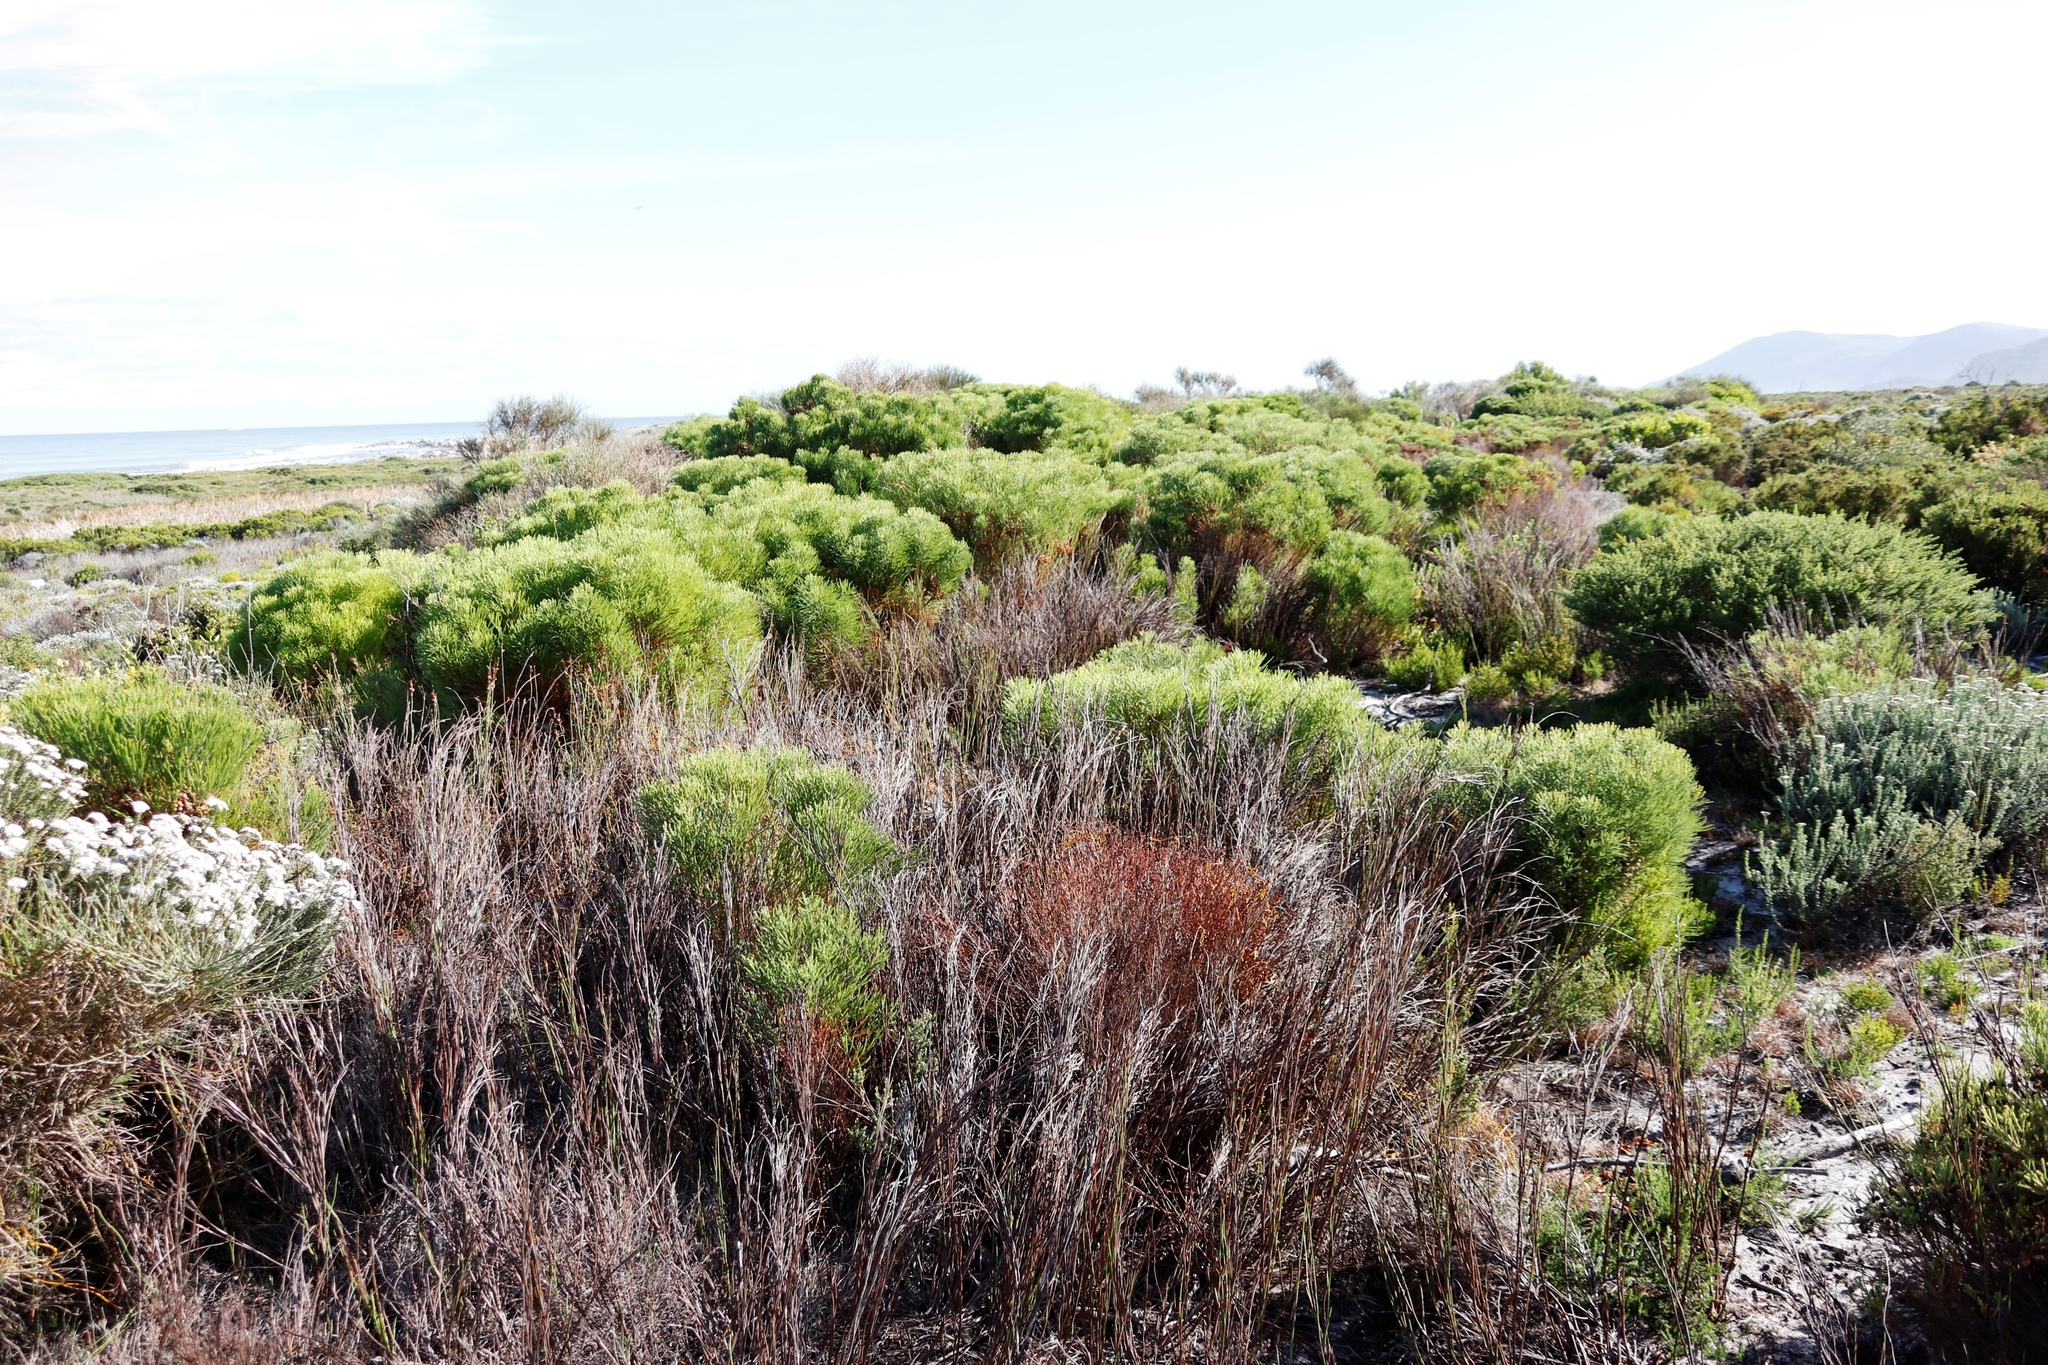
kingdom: Plantae
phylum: Tracheophyta
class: Magnoliopsida
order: Bruniales
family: Bruniaceae
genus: Berzelia
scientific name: Berzelia lanuginosa
